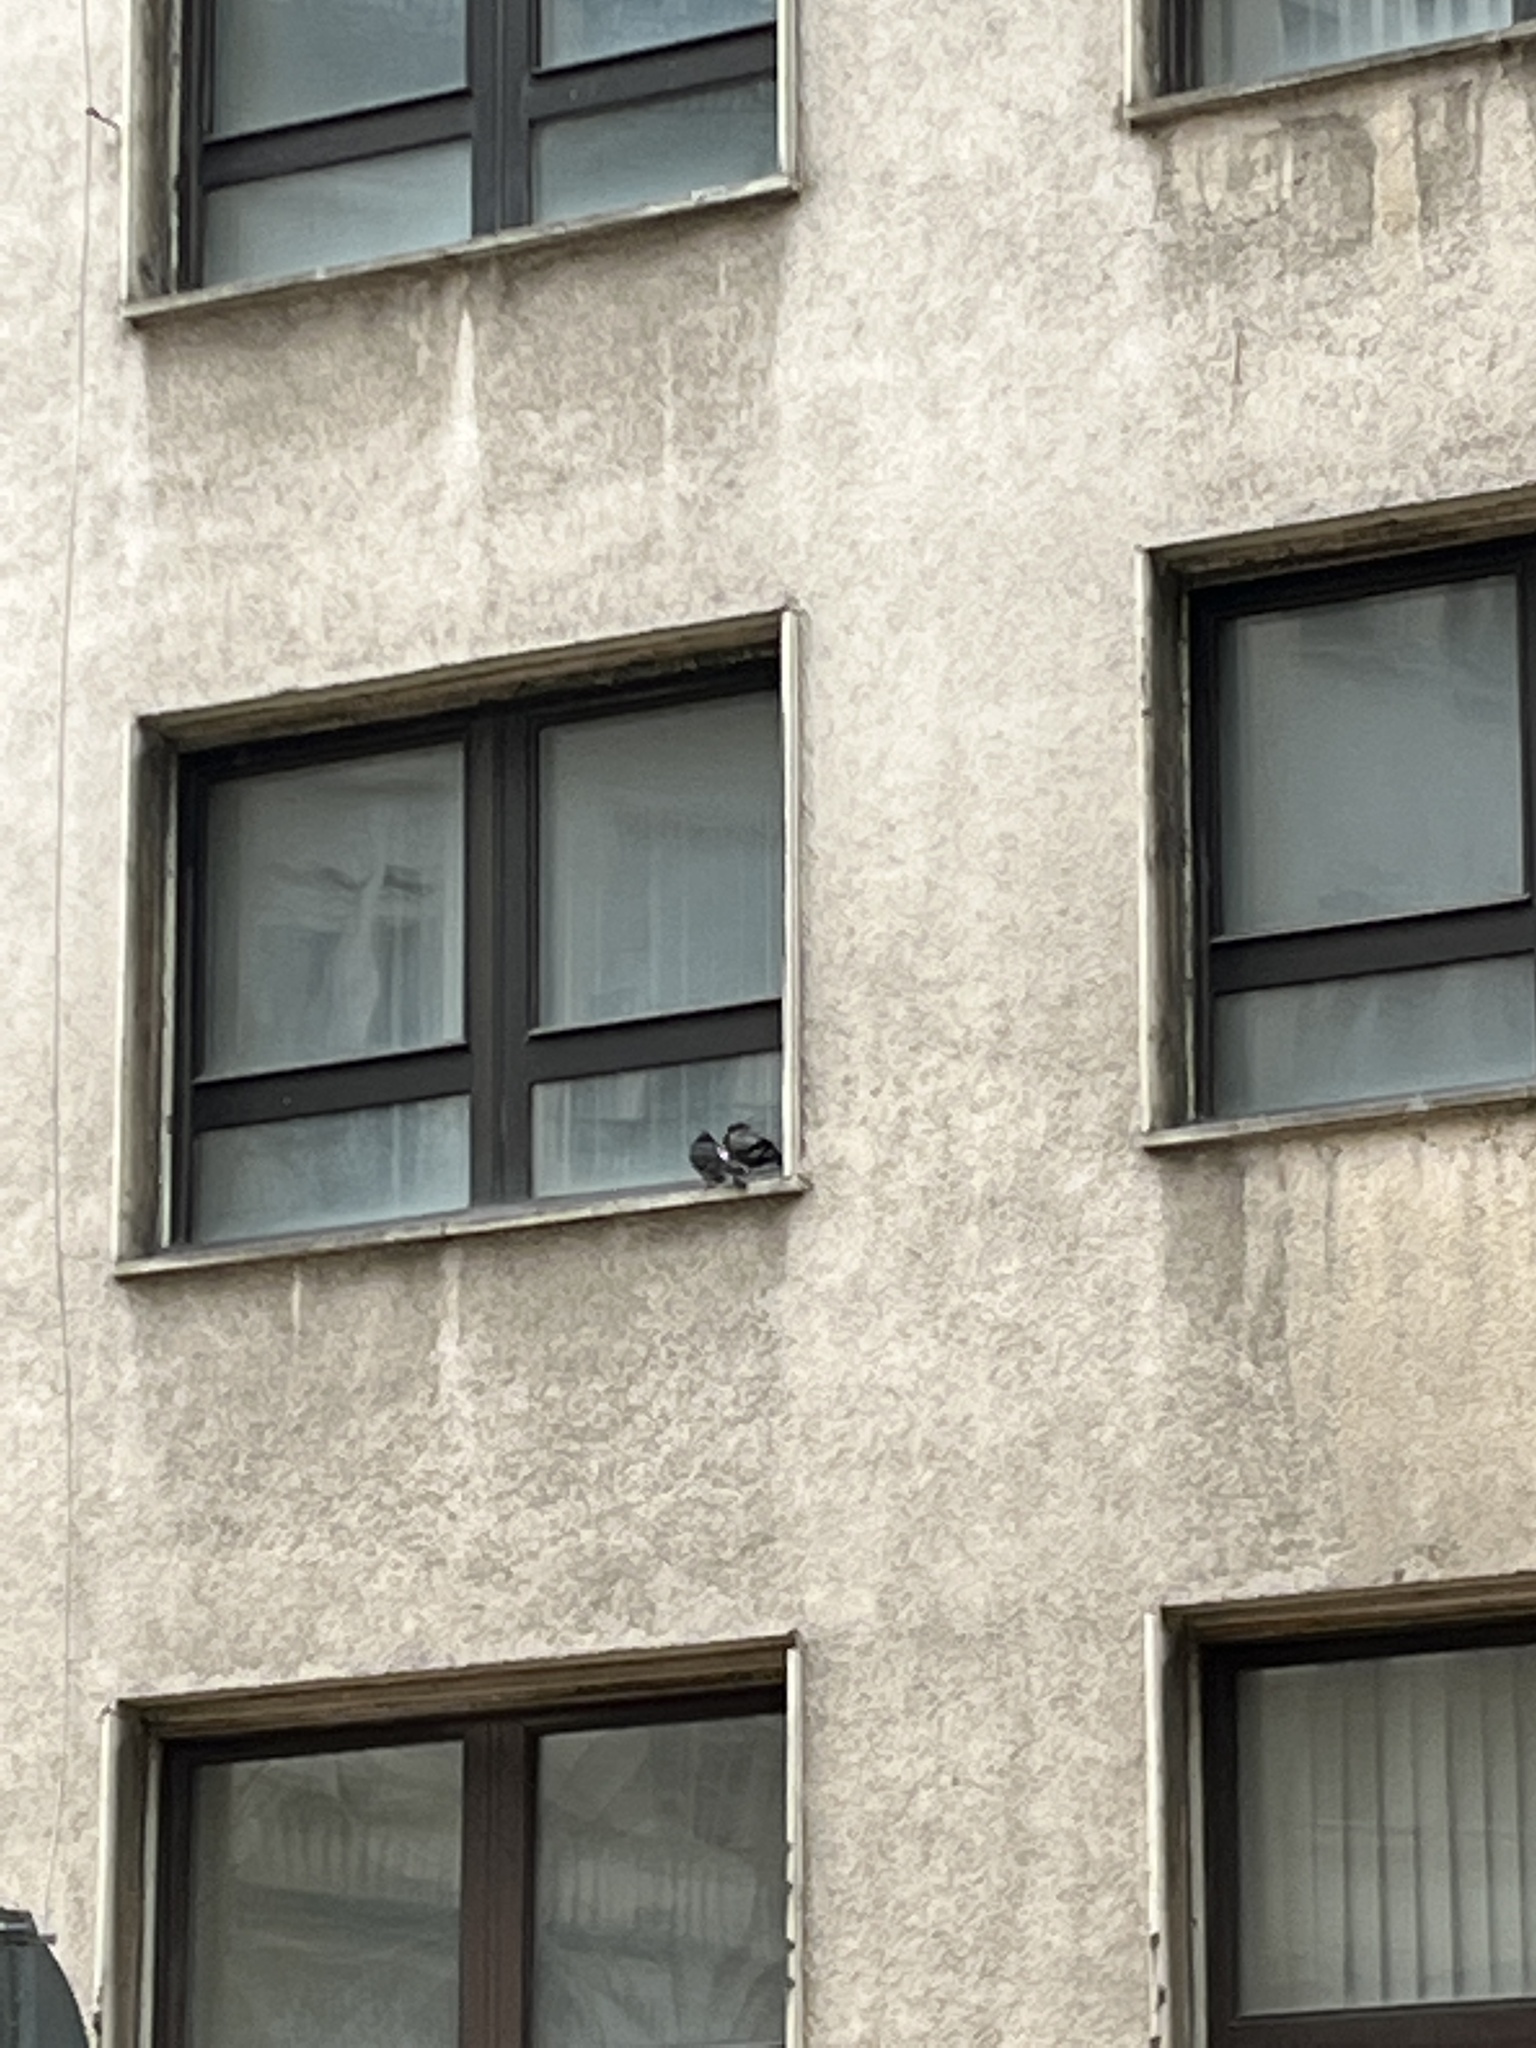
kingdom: Animalia
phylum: Chordata
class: Aves
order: Columbiformes
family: Columbidae
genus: Columba
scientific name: Columba livia
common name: Rock pigeon
